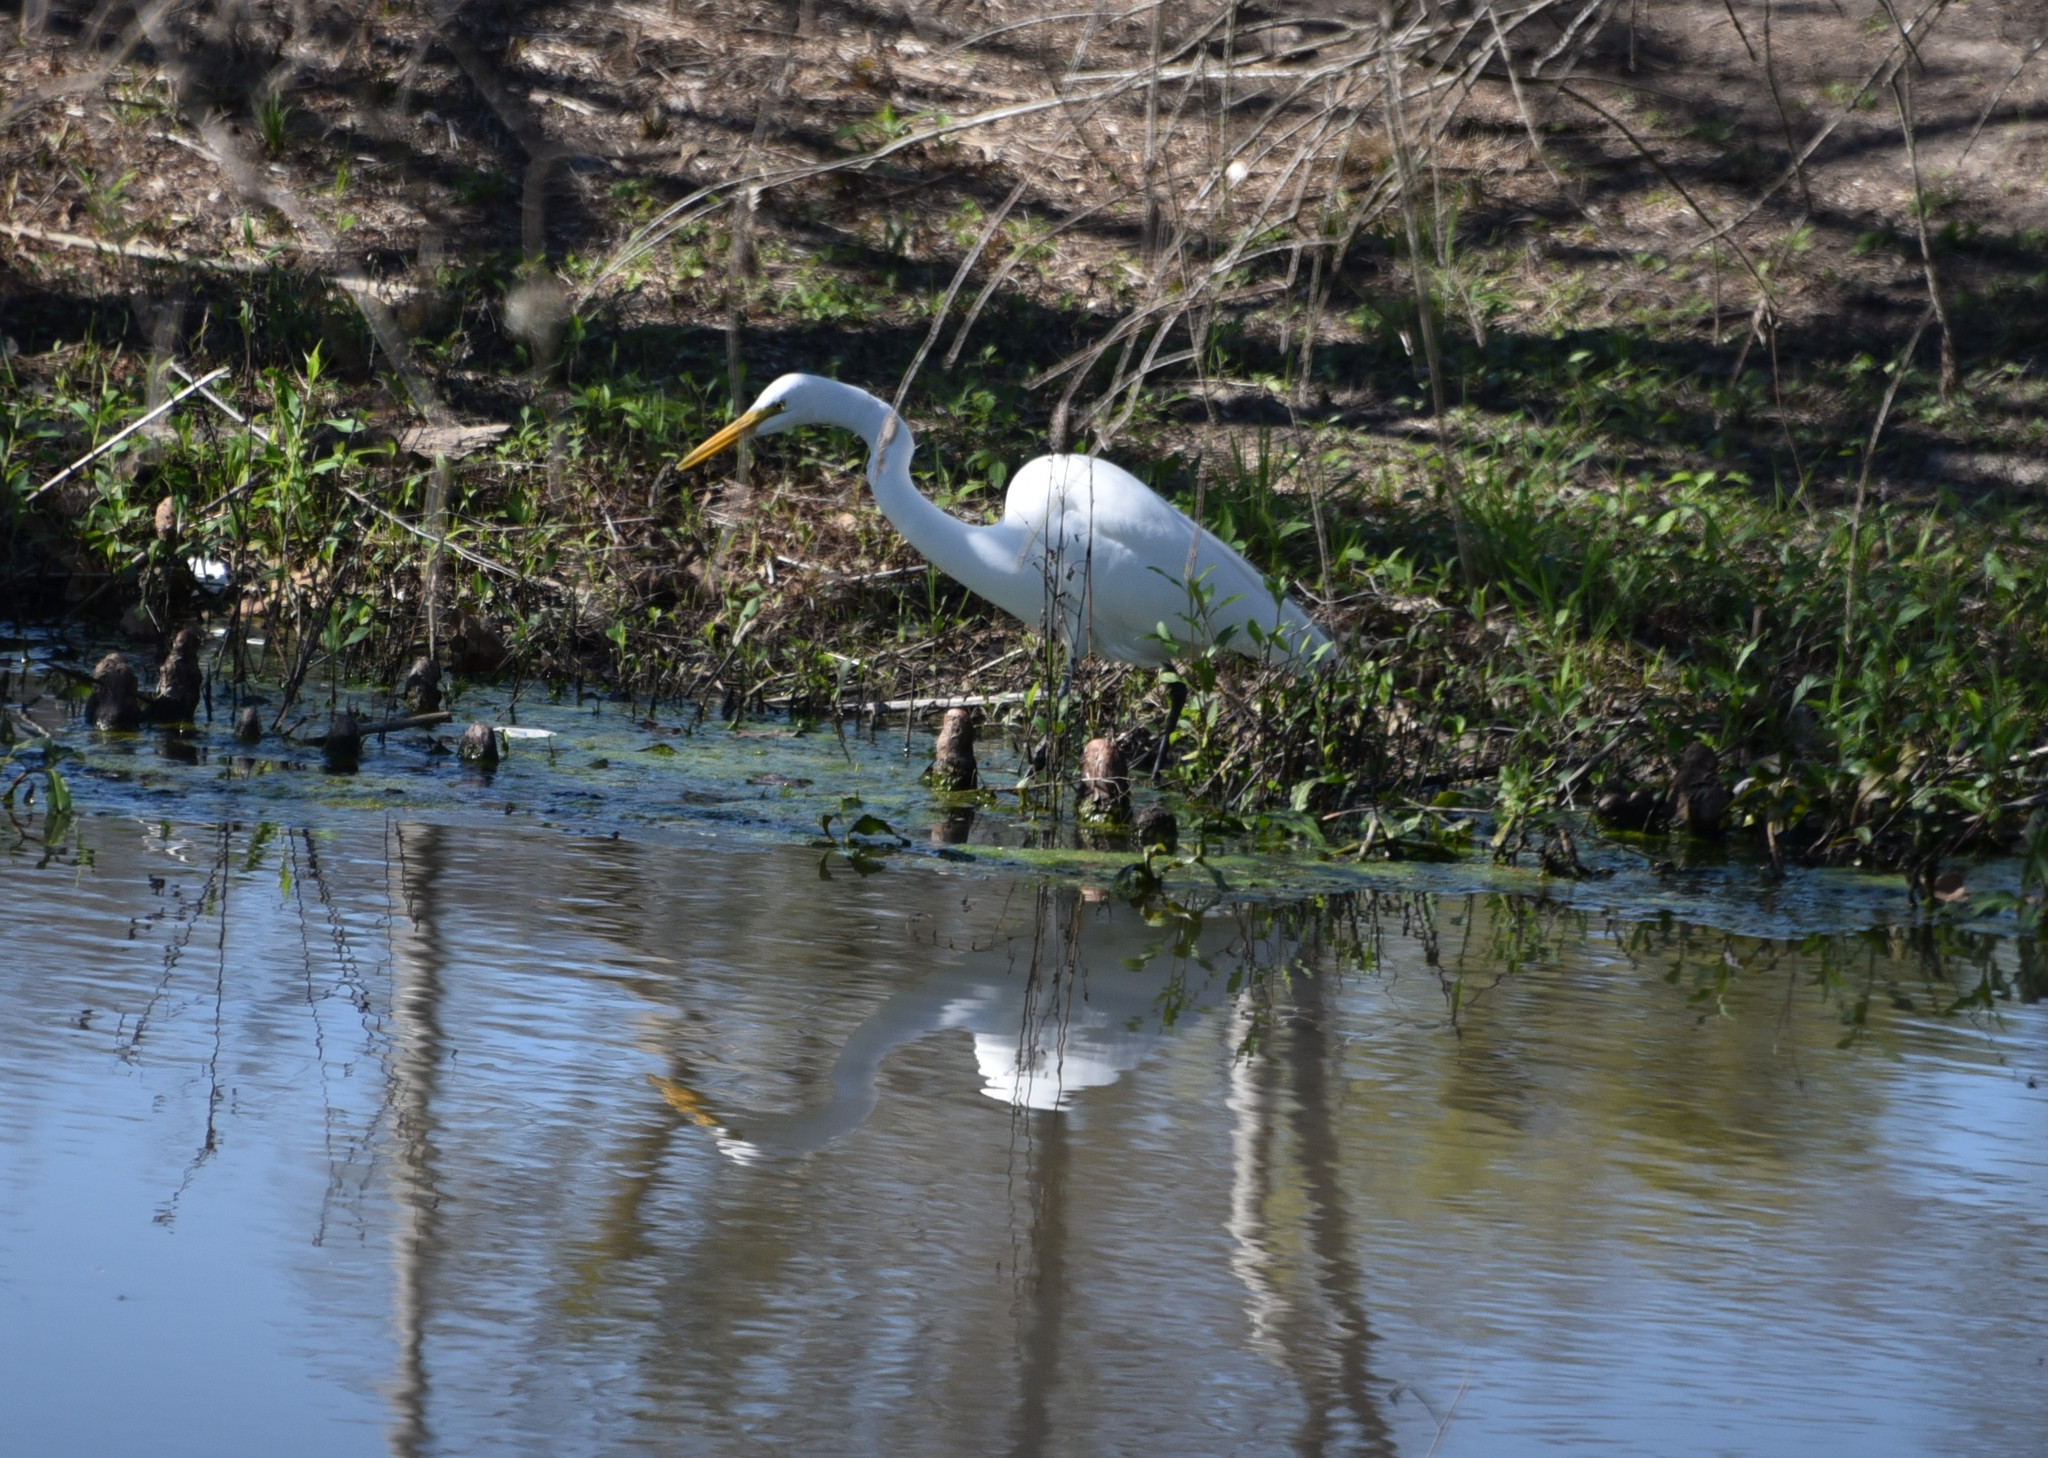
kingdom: Animalia
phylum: Chordata
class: Aves
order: Pelecaniformes
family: Ardeidae
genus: Ardea
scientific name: Ardea alba
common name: Great egret
